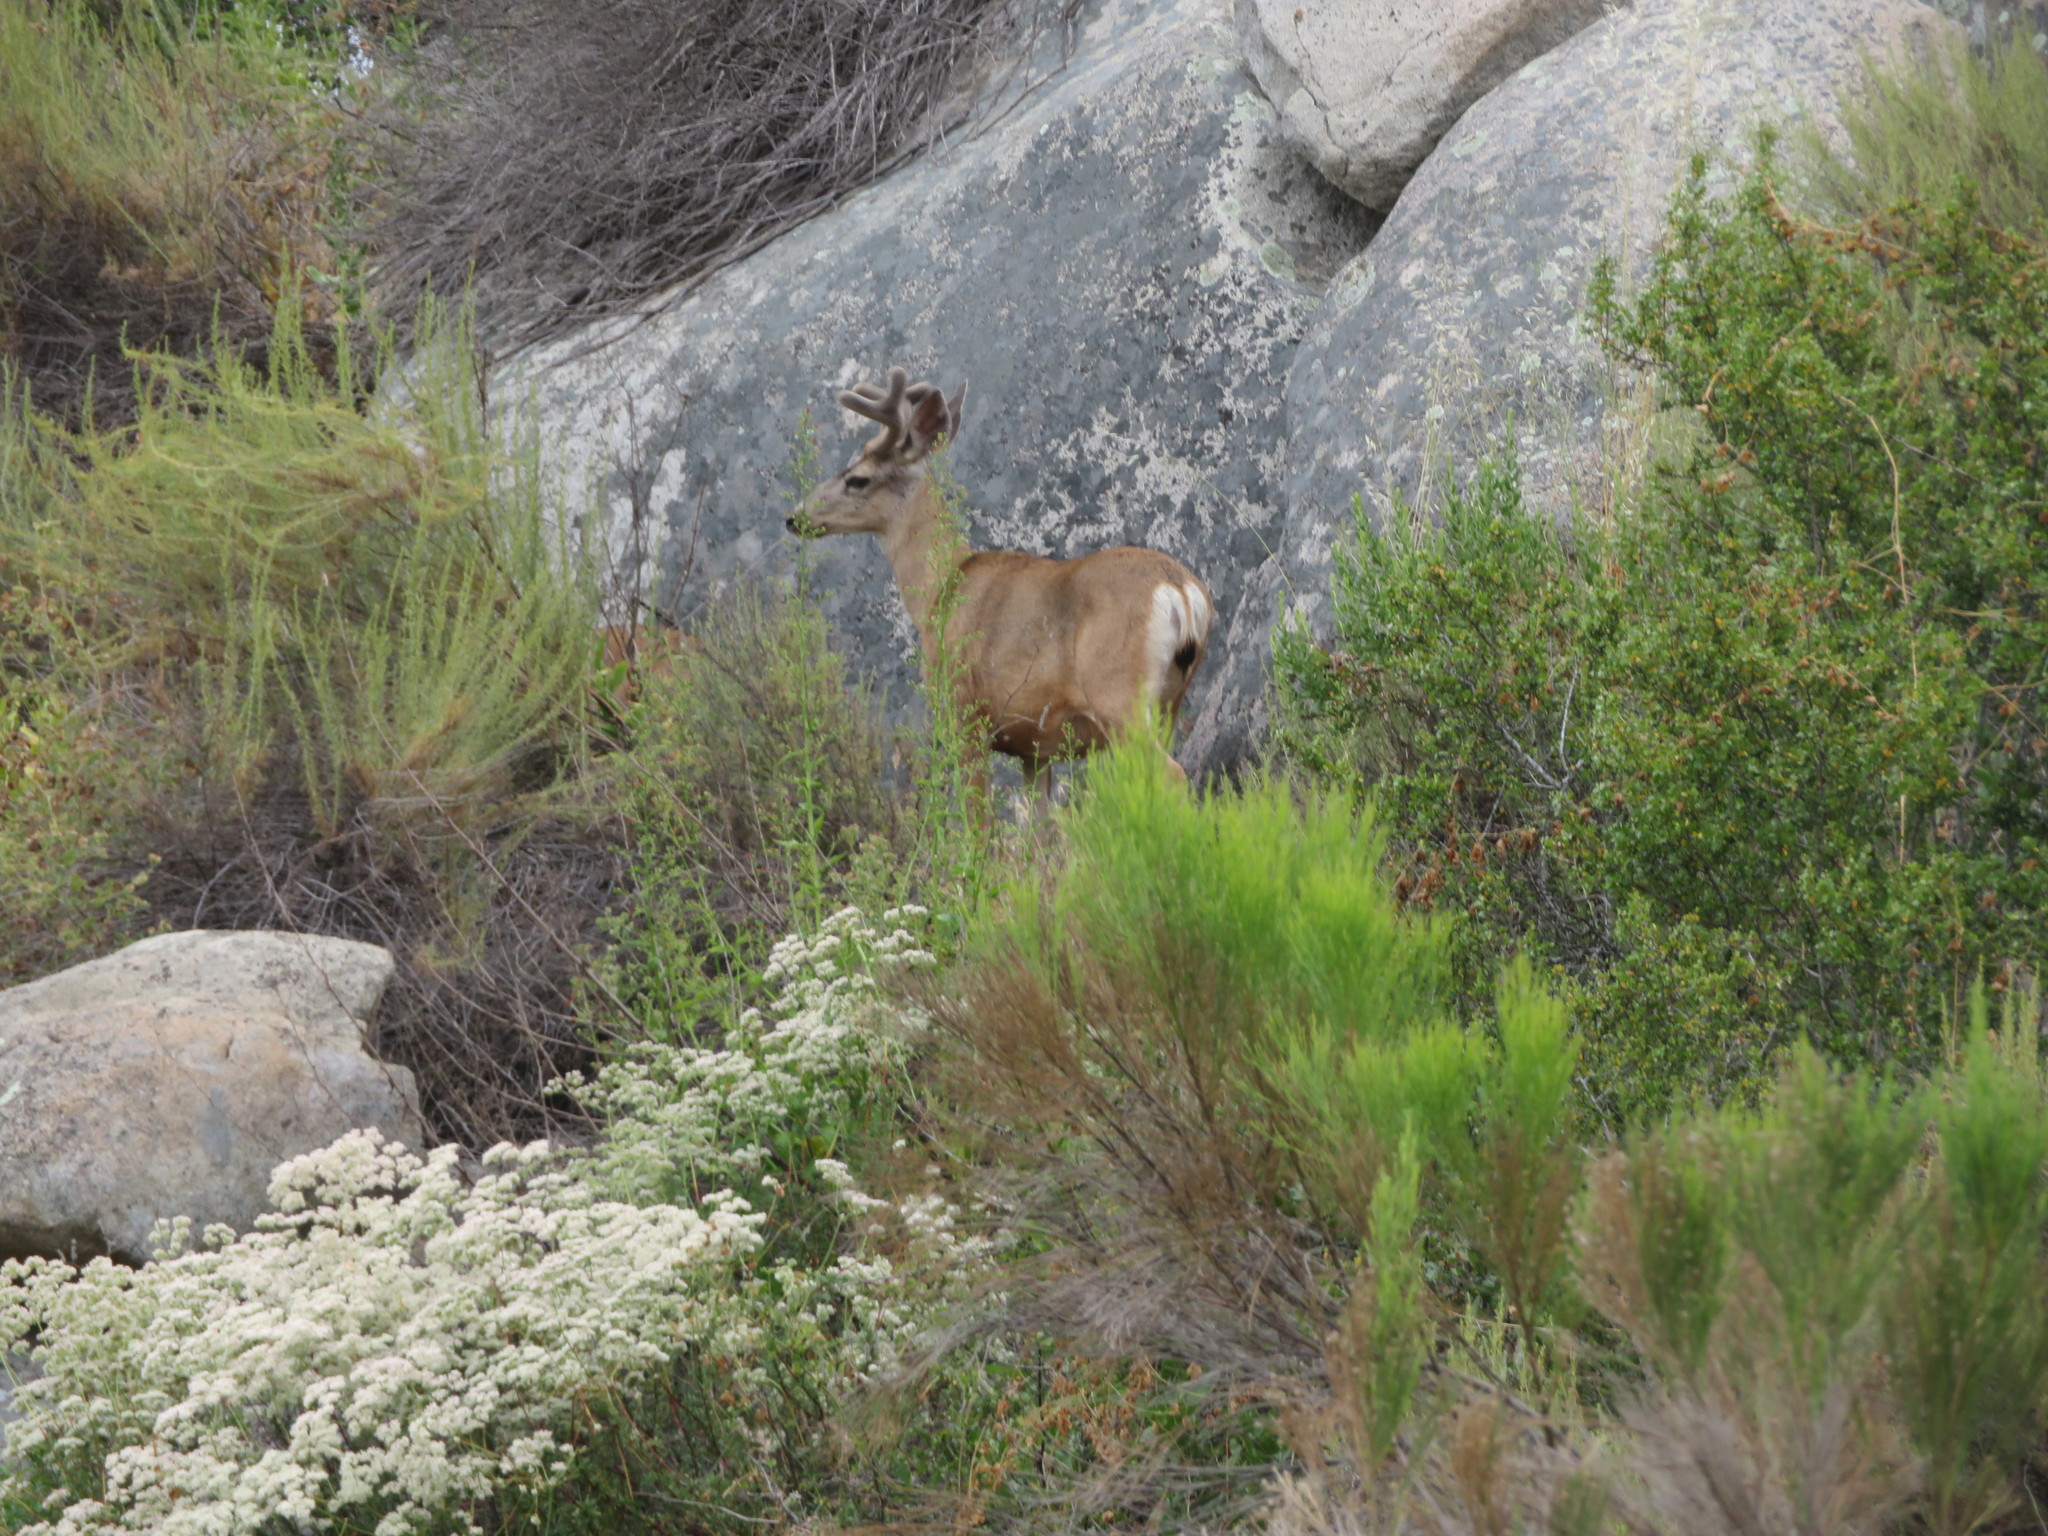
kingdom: Animalia
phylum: Chordata
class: Mammalia
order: Artiodactyla
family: Cervidae
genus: Odocoileus
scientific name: Odocoileus hemionus
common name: Mule deer
